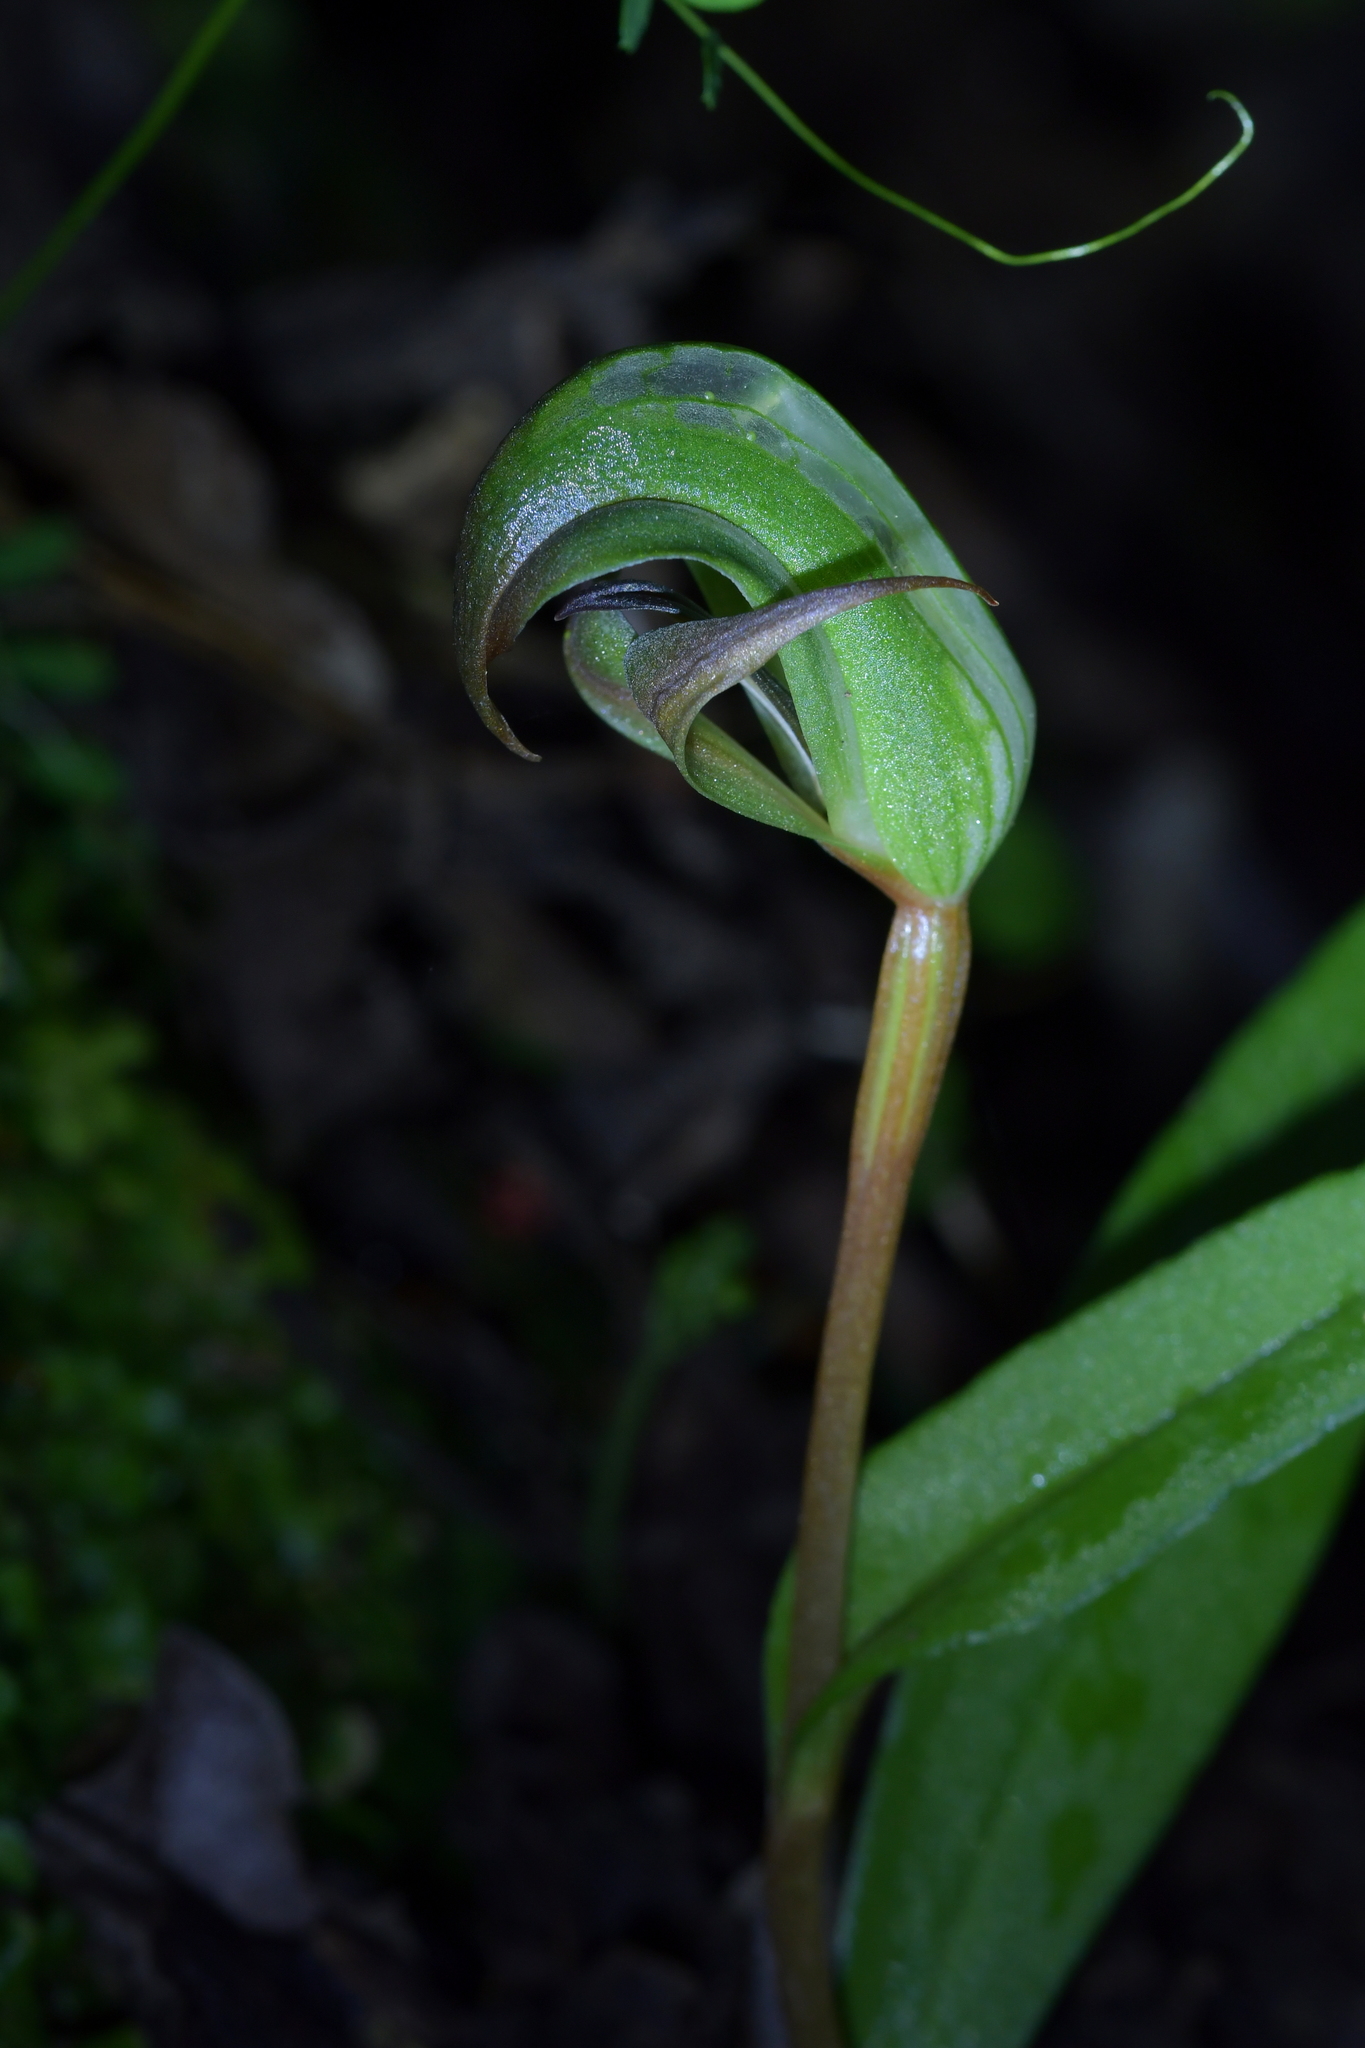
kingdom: Plantae
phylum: Tracheophyta
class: Liliopsida
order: Asparagales
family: Orchidaceae
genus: Pterostylis
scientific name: Pterostylis areolata
